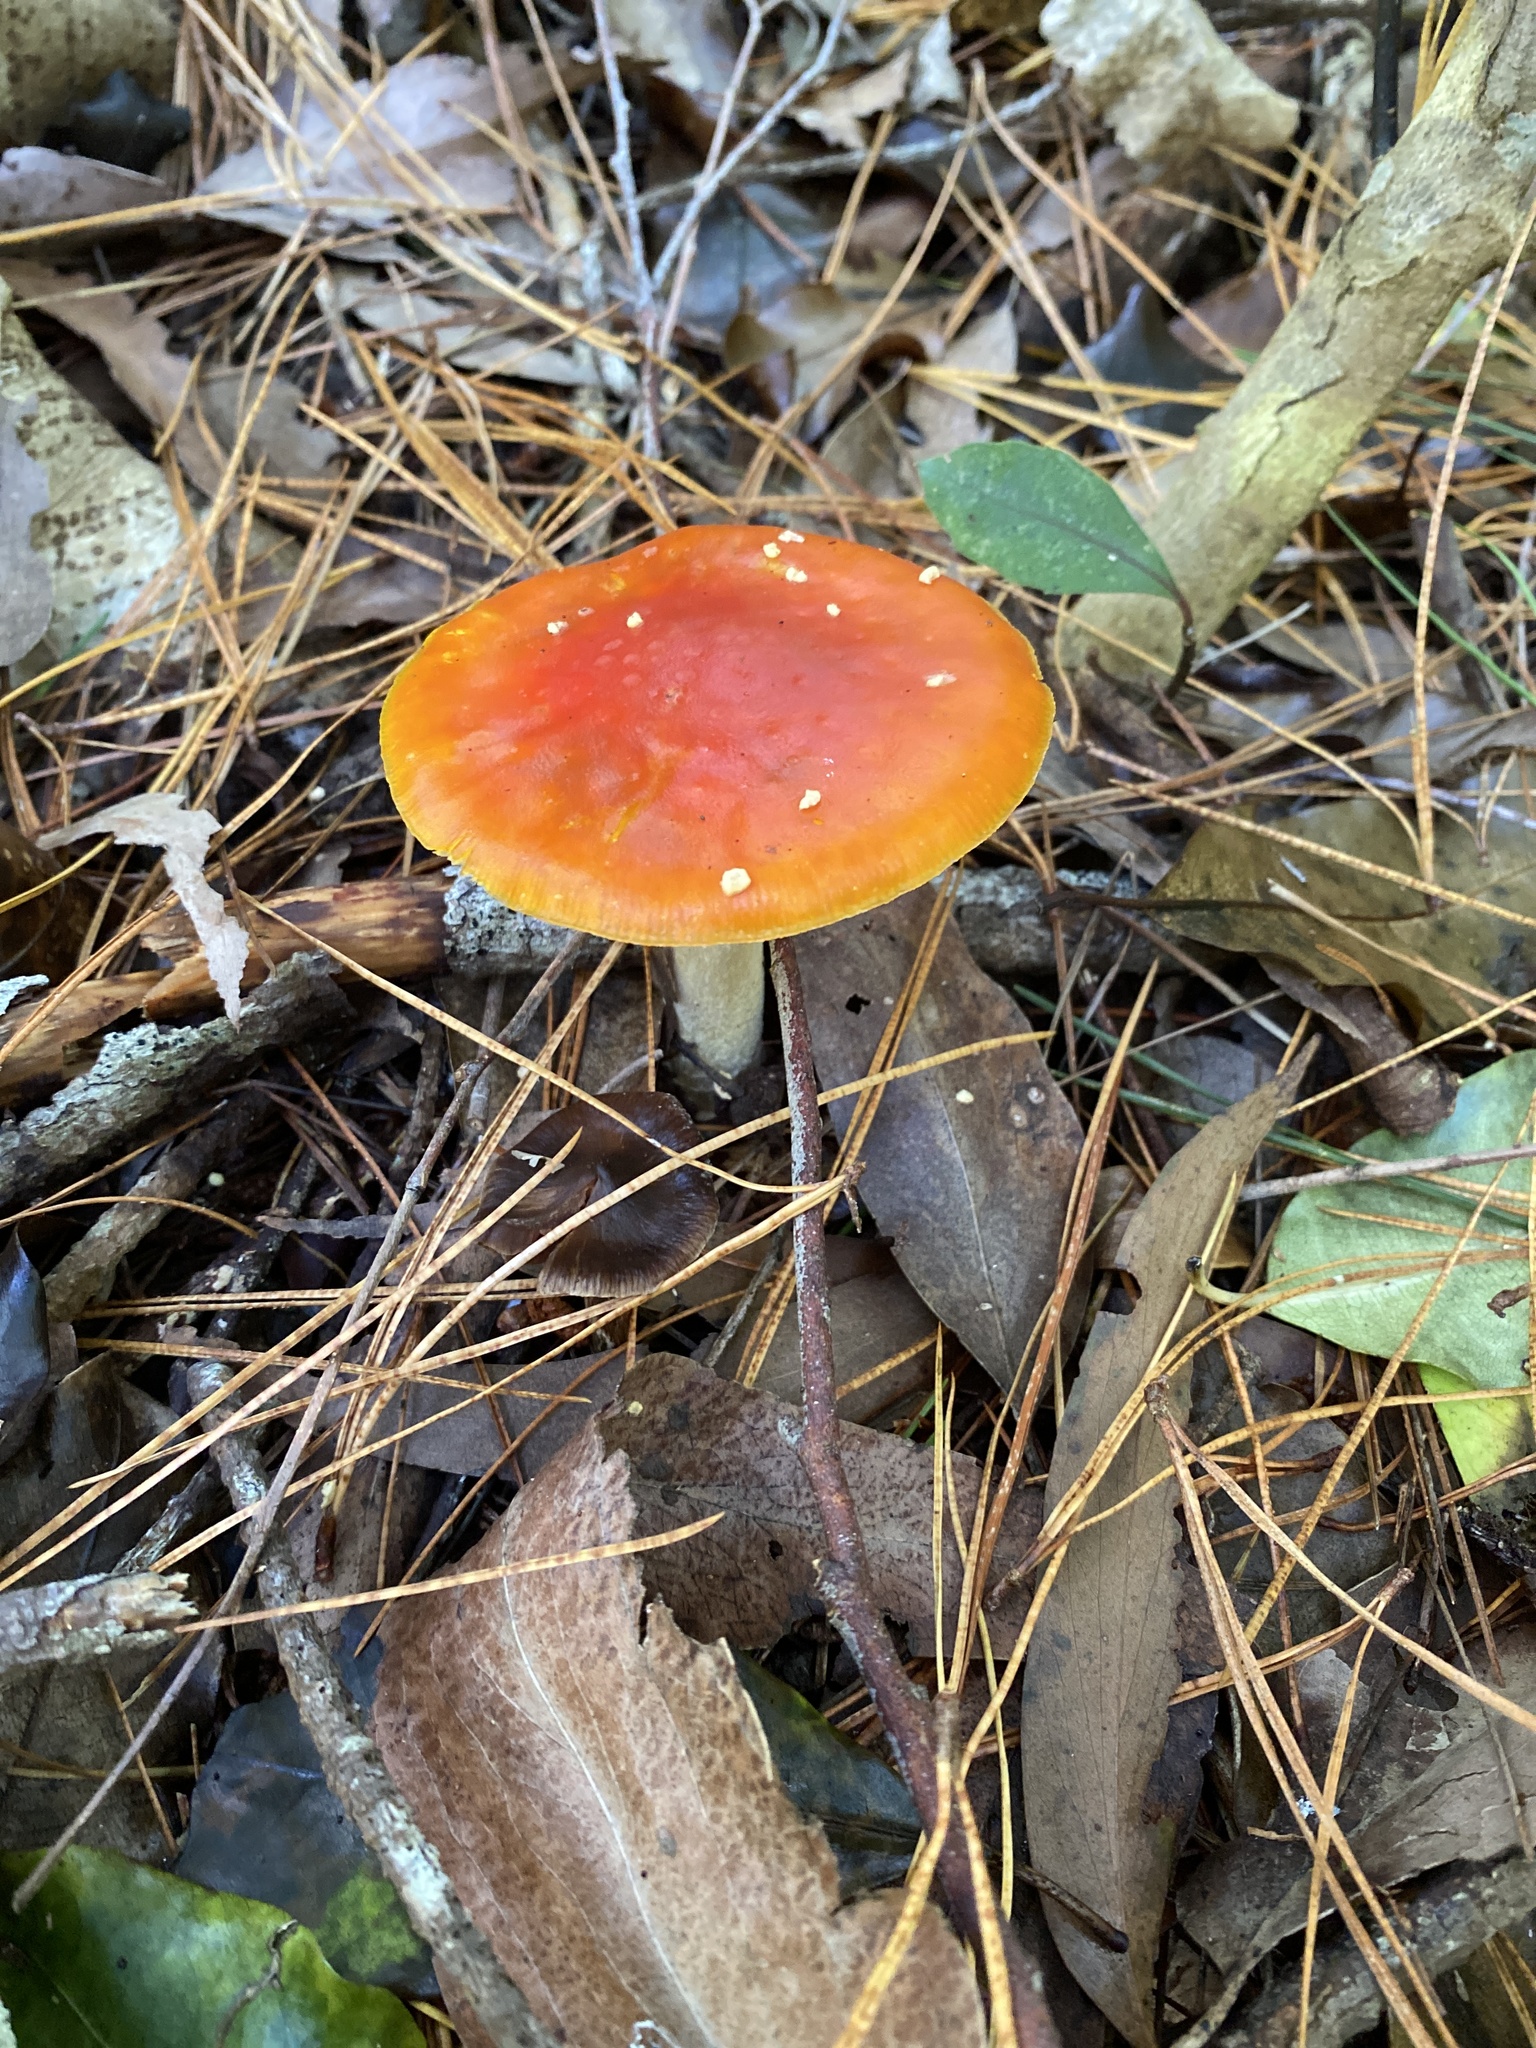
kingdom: Fungi
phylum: Basidiomycota
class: Agaricomycetes
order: Agaricales
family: Amanitaceae
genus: Amanita
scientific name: Amanita muscaria
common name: Fly agaric
